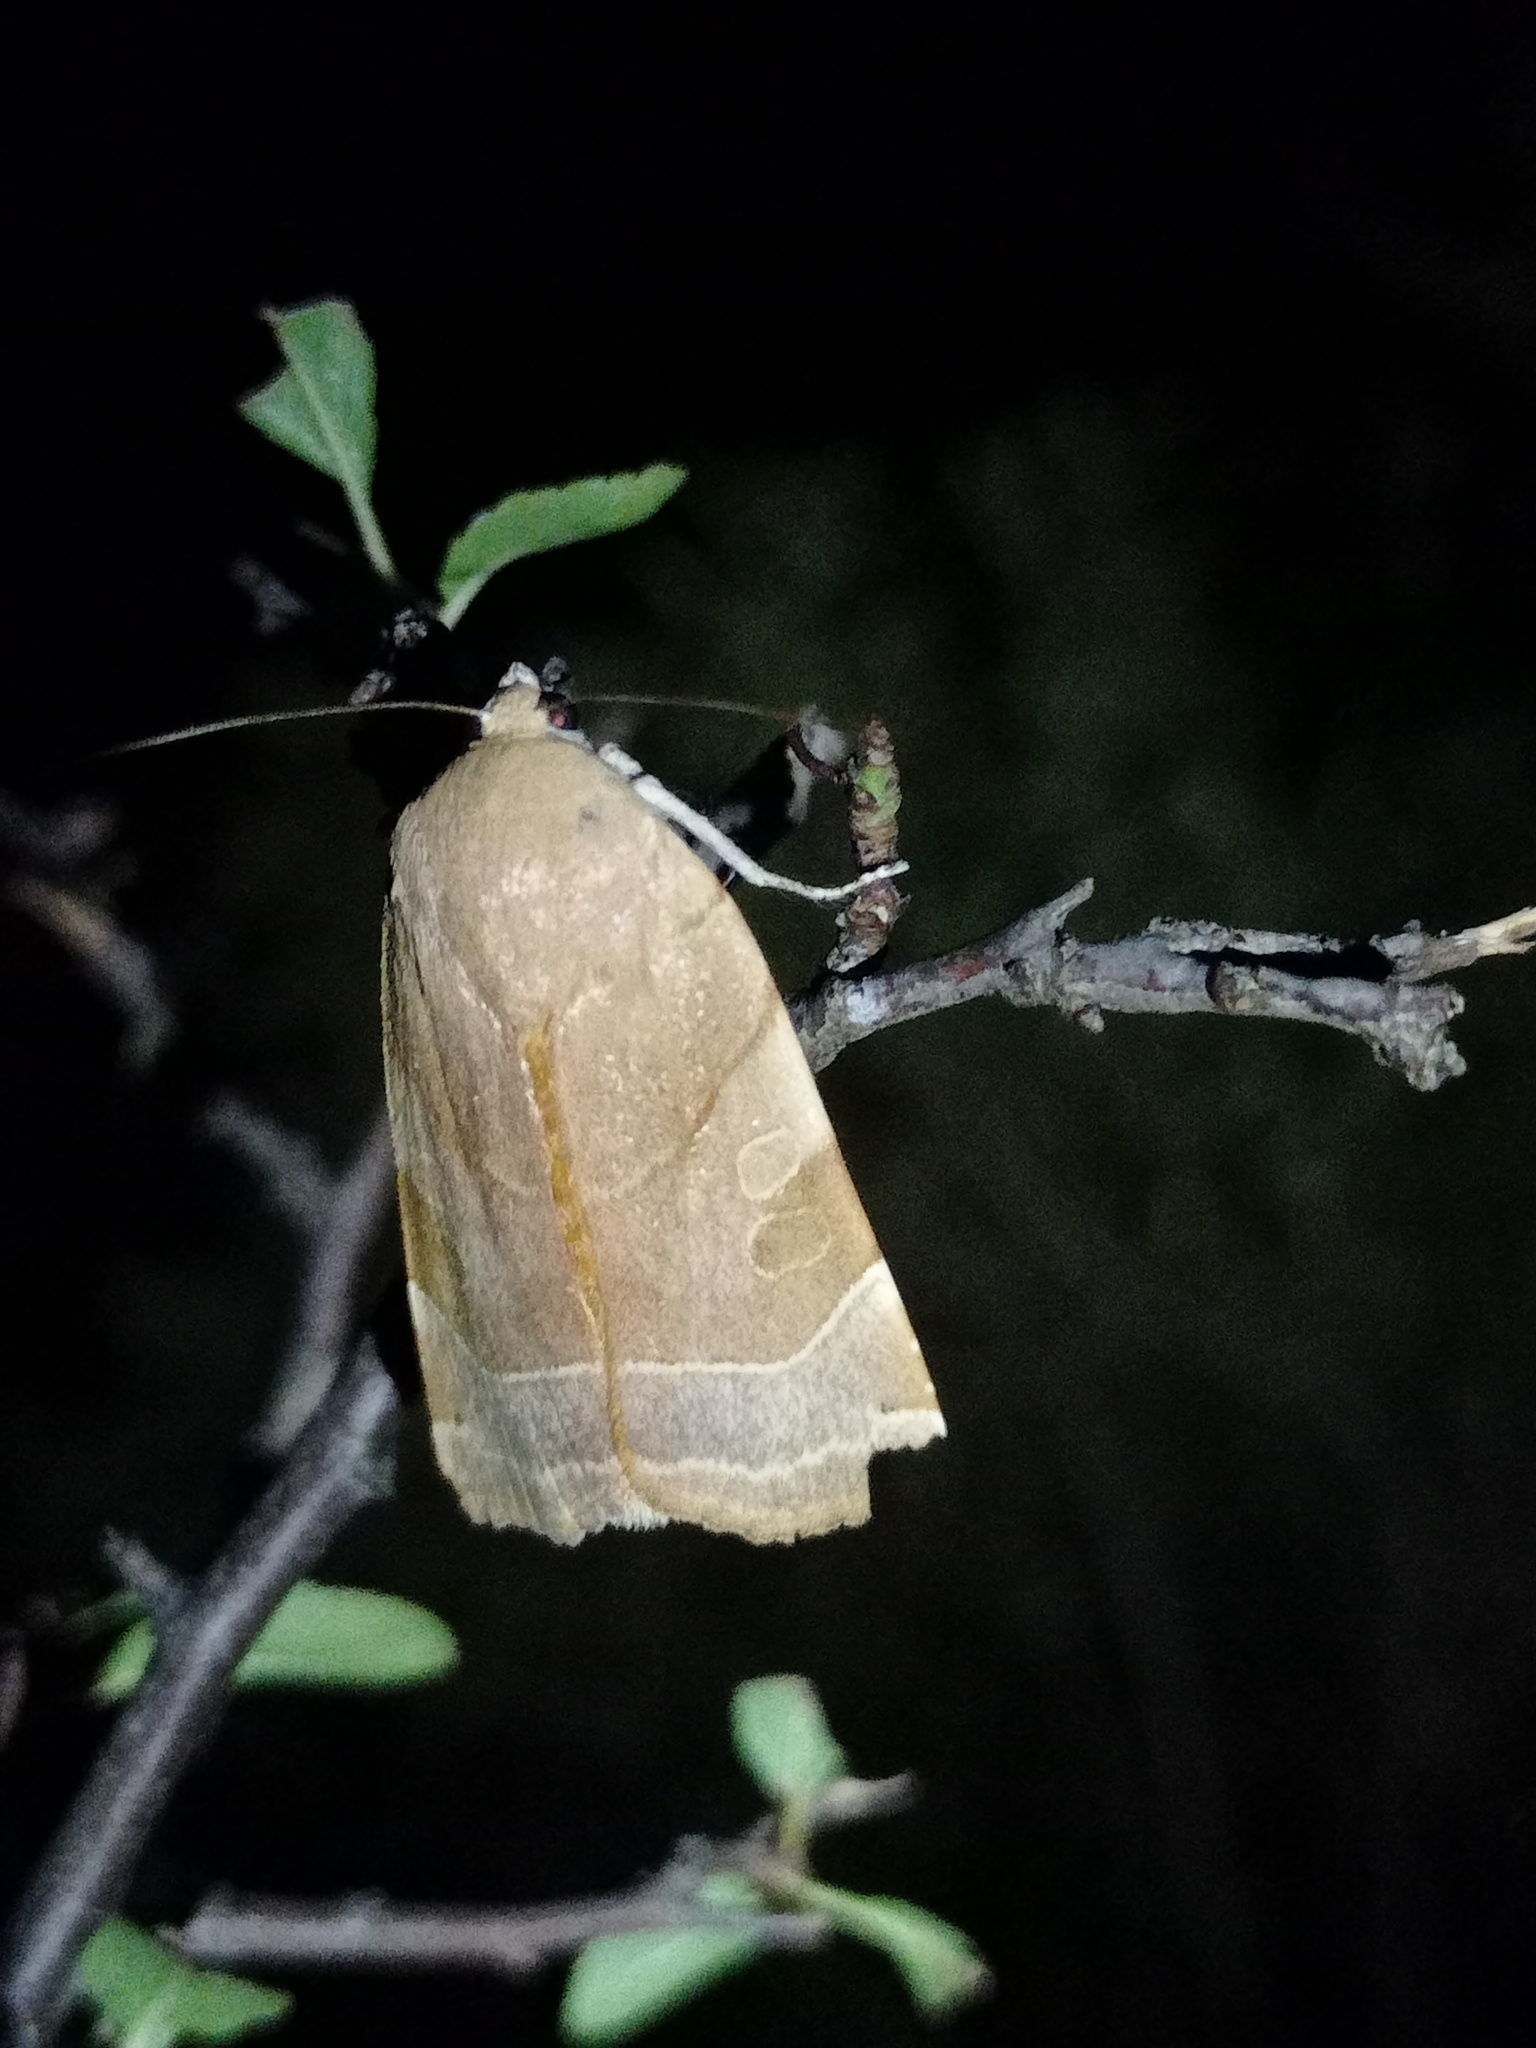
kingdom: Animalia
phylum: Arthropoda
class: Insecta
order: Lepidoptera
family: Noctuidae
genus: Noctua
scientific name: Noctua fimbriata
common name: Broad-bordered yellow underwing
